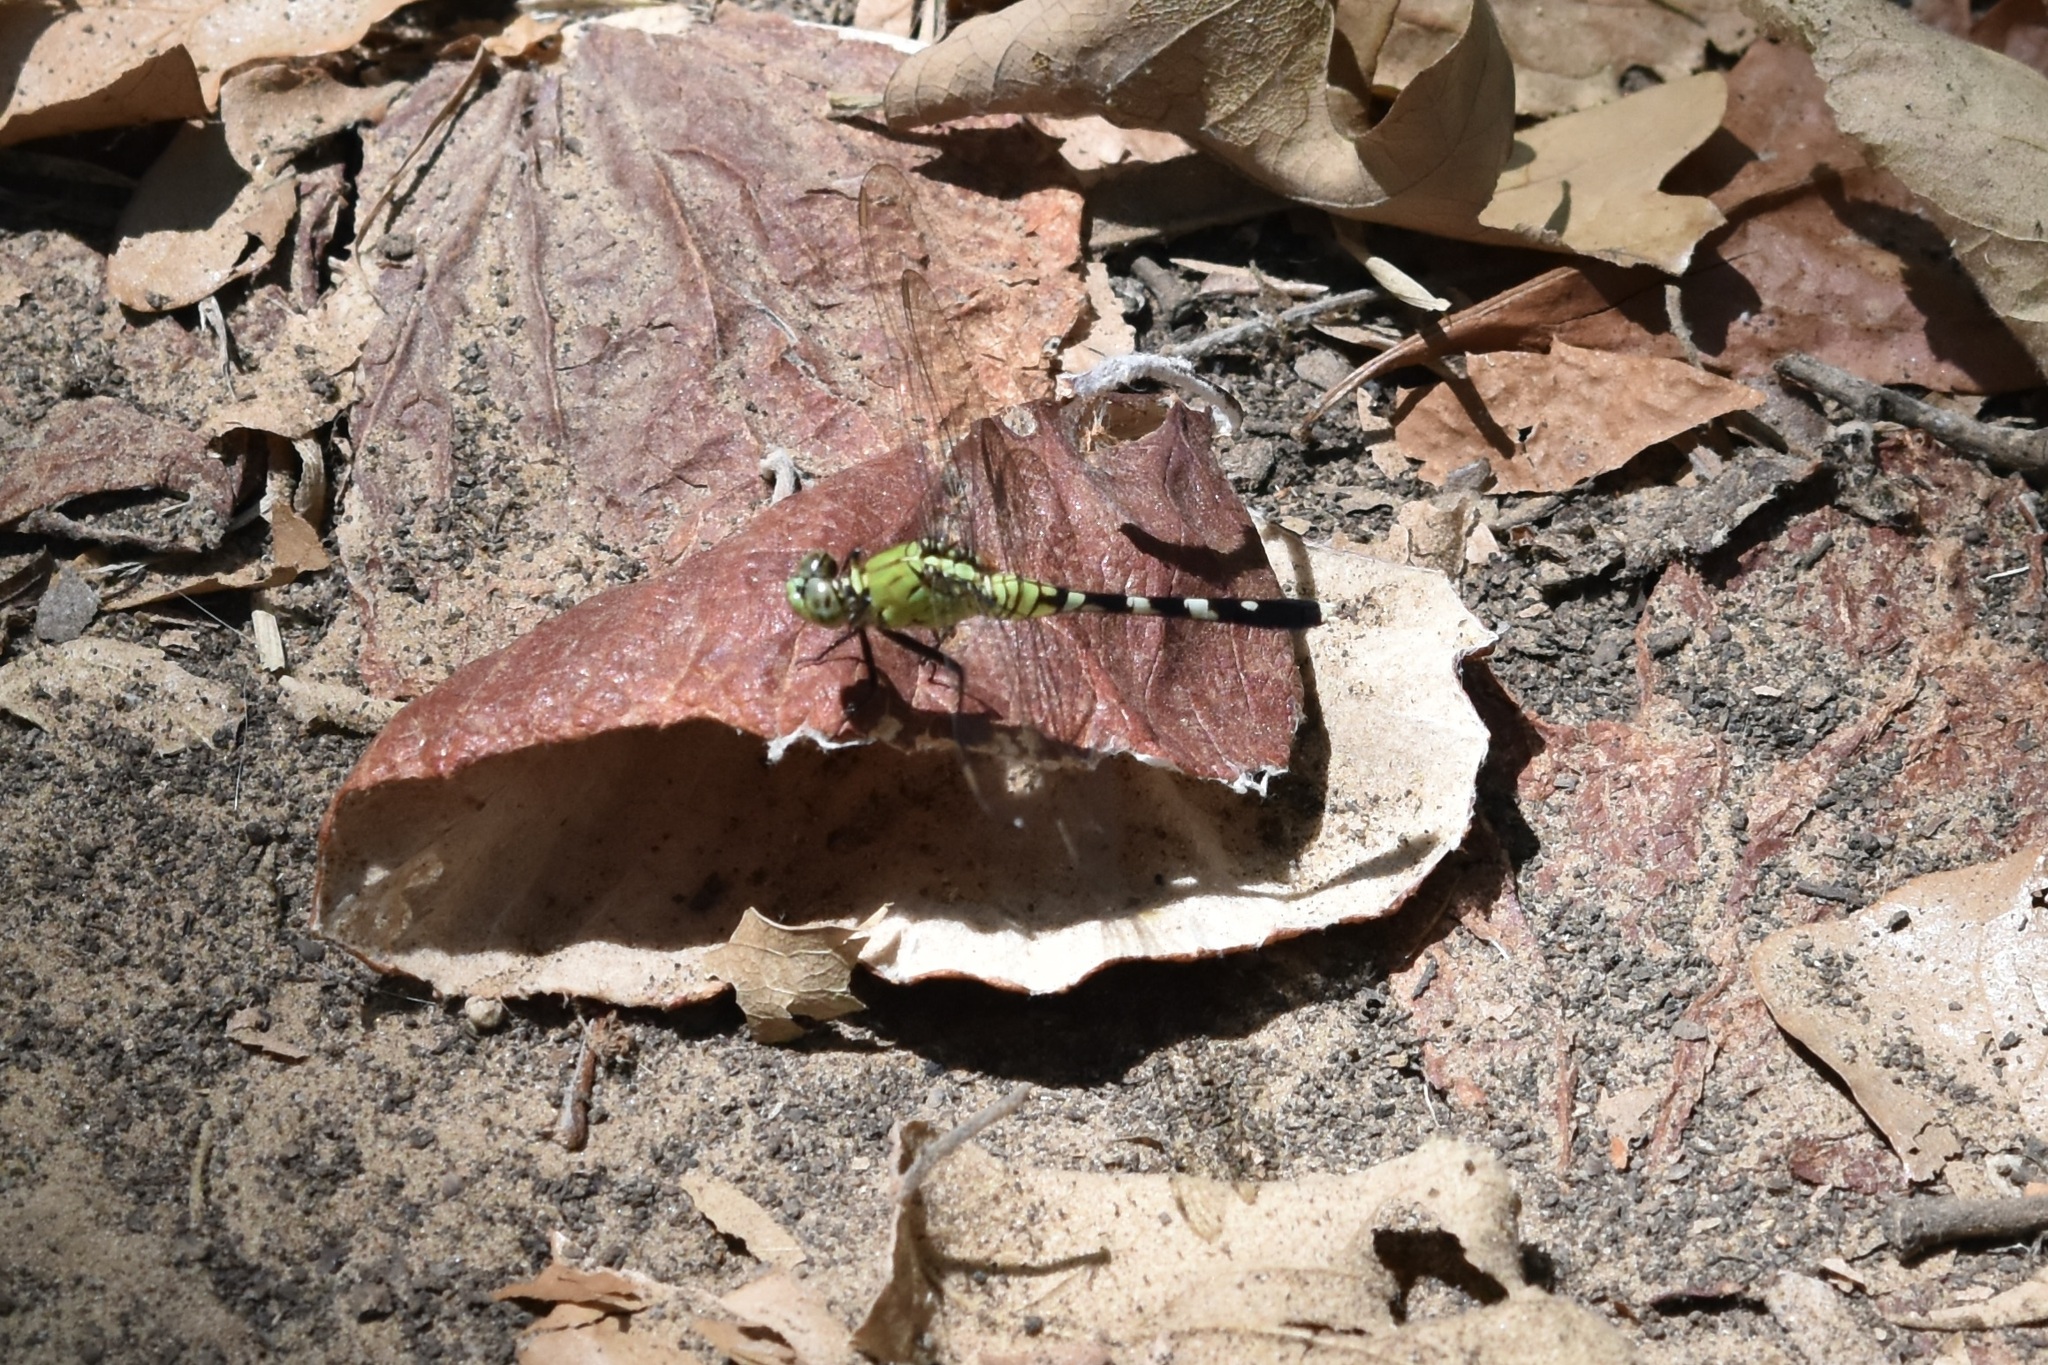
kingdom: Animalia
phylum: Arthropoda
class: Insecta
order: Odonata
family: Libellulidae
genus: Erythemis
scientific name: Erythemis simplicicollis
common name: Eastern pondhawk
